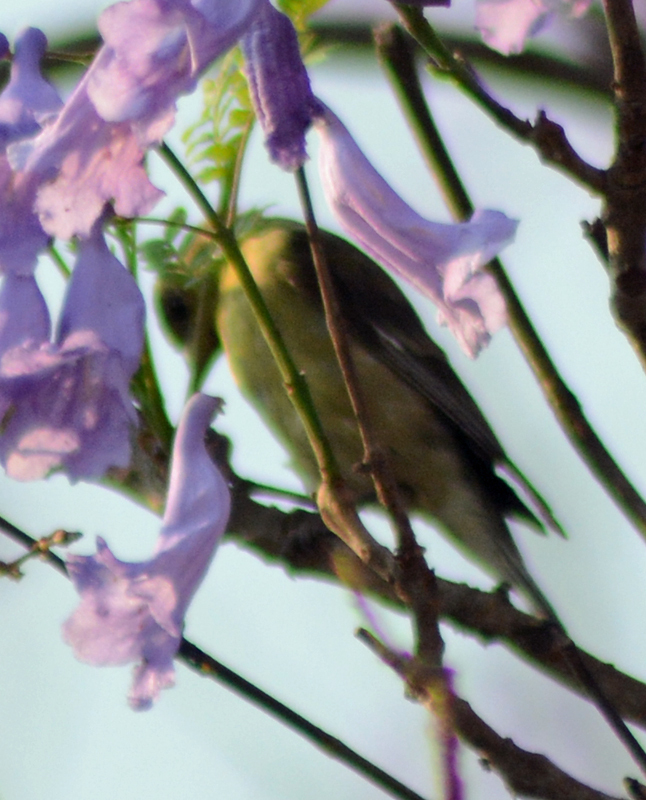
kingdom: Animalia
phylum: Chordata
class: Aves
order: Passeriformes
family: Fringillidae
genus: Spinus
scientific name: Spinus psaltria
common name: Lesser goldfinch
